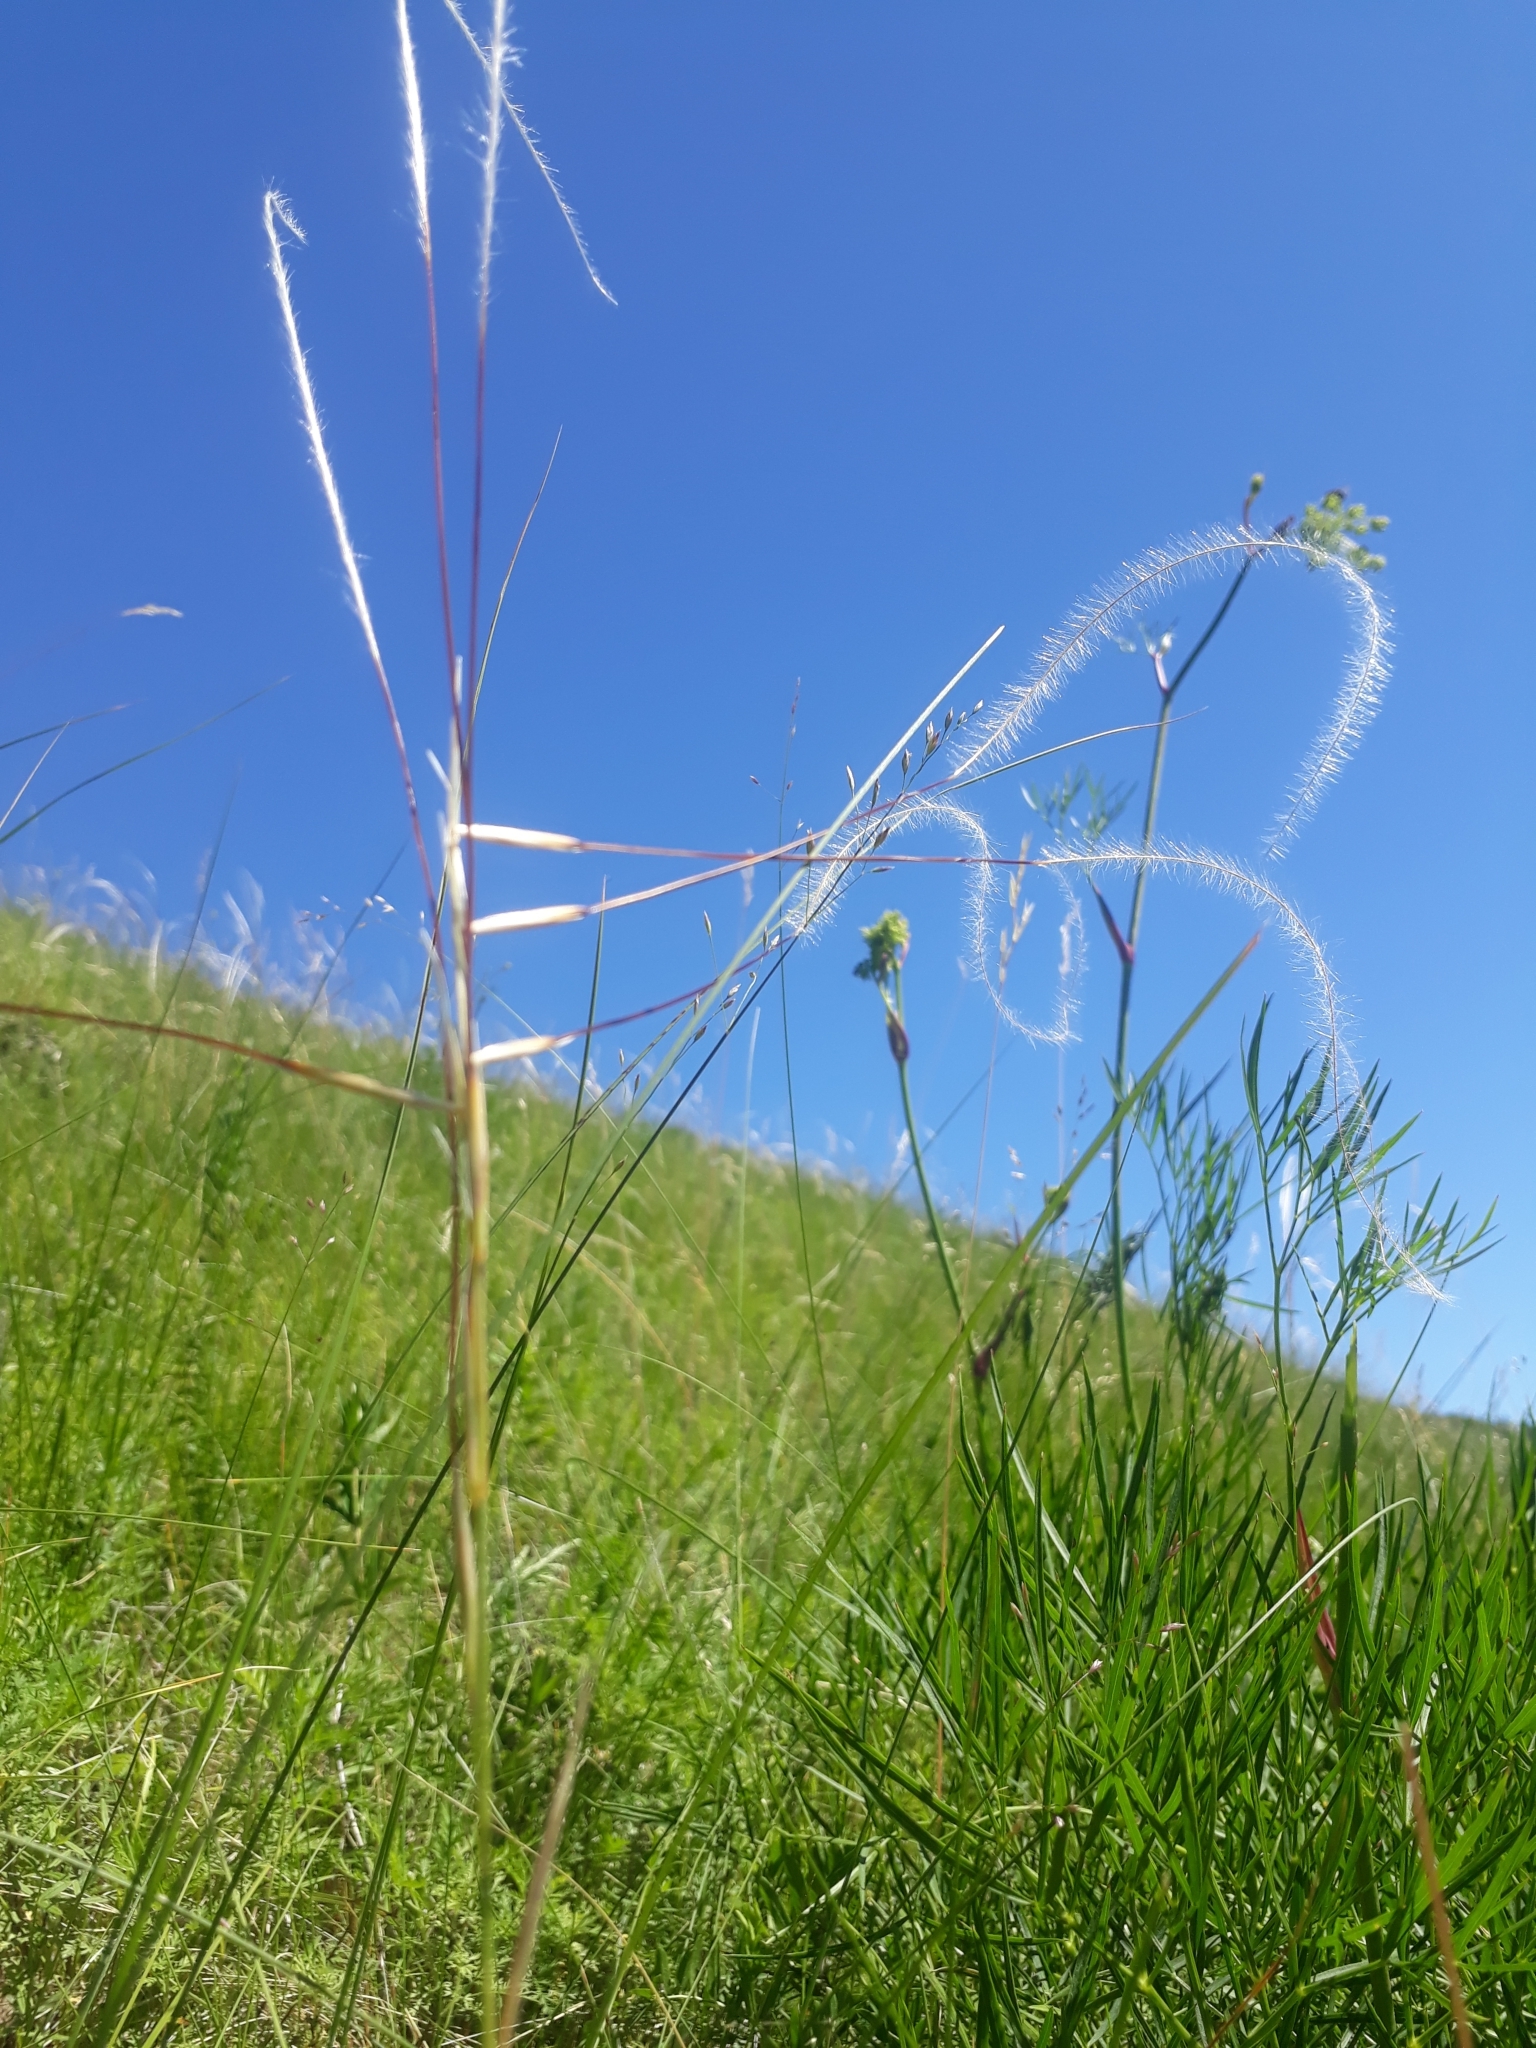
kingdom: Plantae
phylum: Tracheophyta
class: Liliopsida
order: Poales
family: Poaceae
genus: Stipa
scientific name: Stipa pennata
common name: European feather grass
